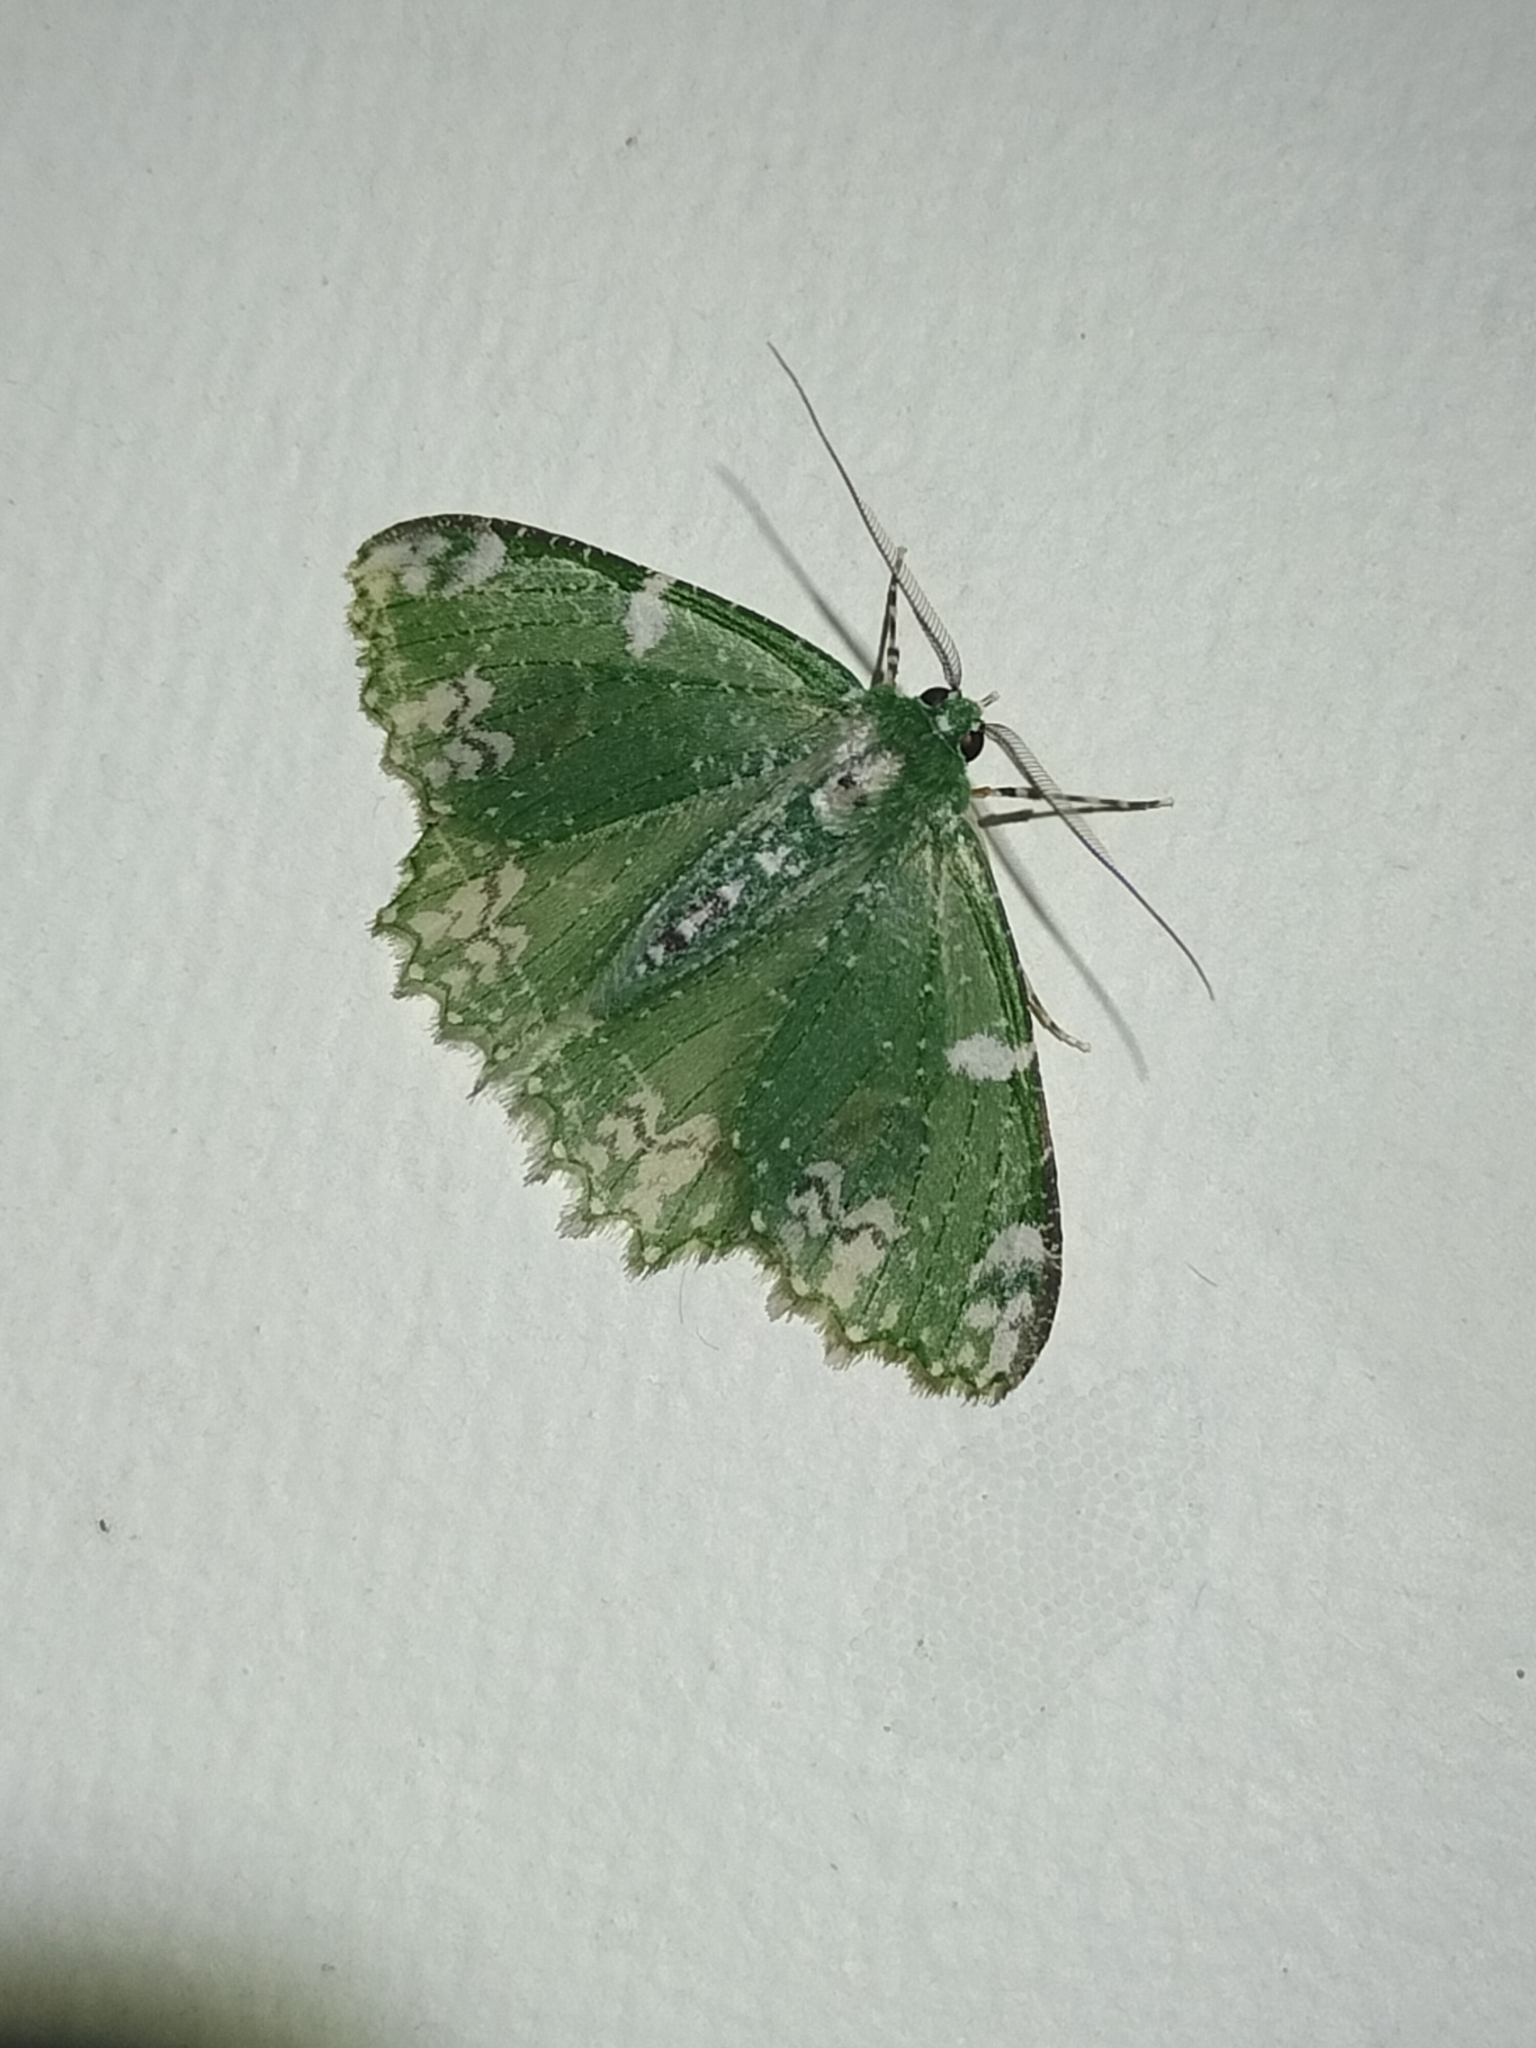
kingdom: Animalia
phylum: Arthropoda
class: Insecta
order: Lepidoptera
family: Geometridae
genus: Eucyclodes
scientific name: Eucyclodes fascinans
